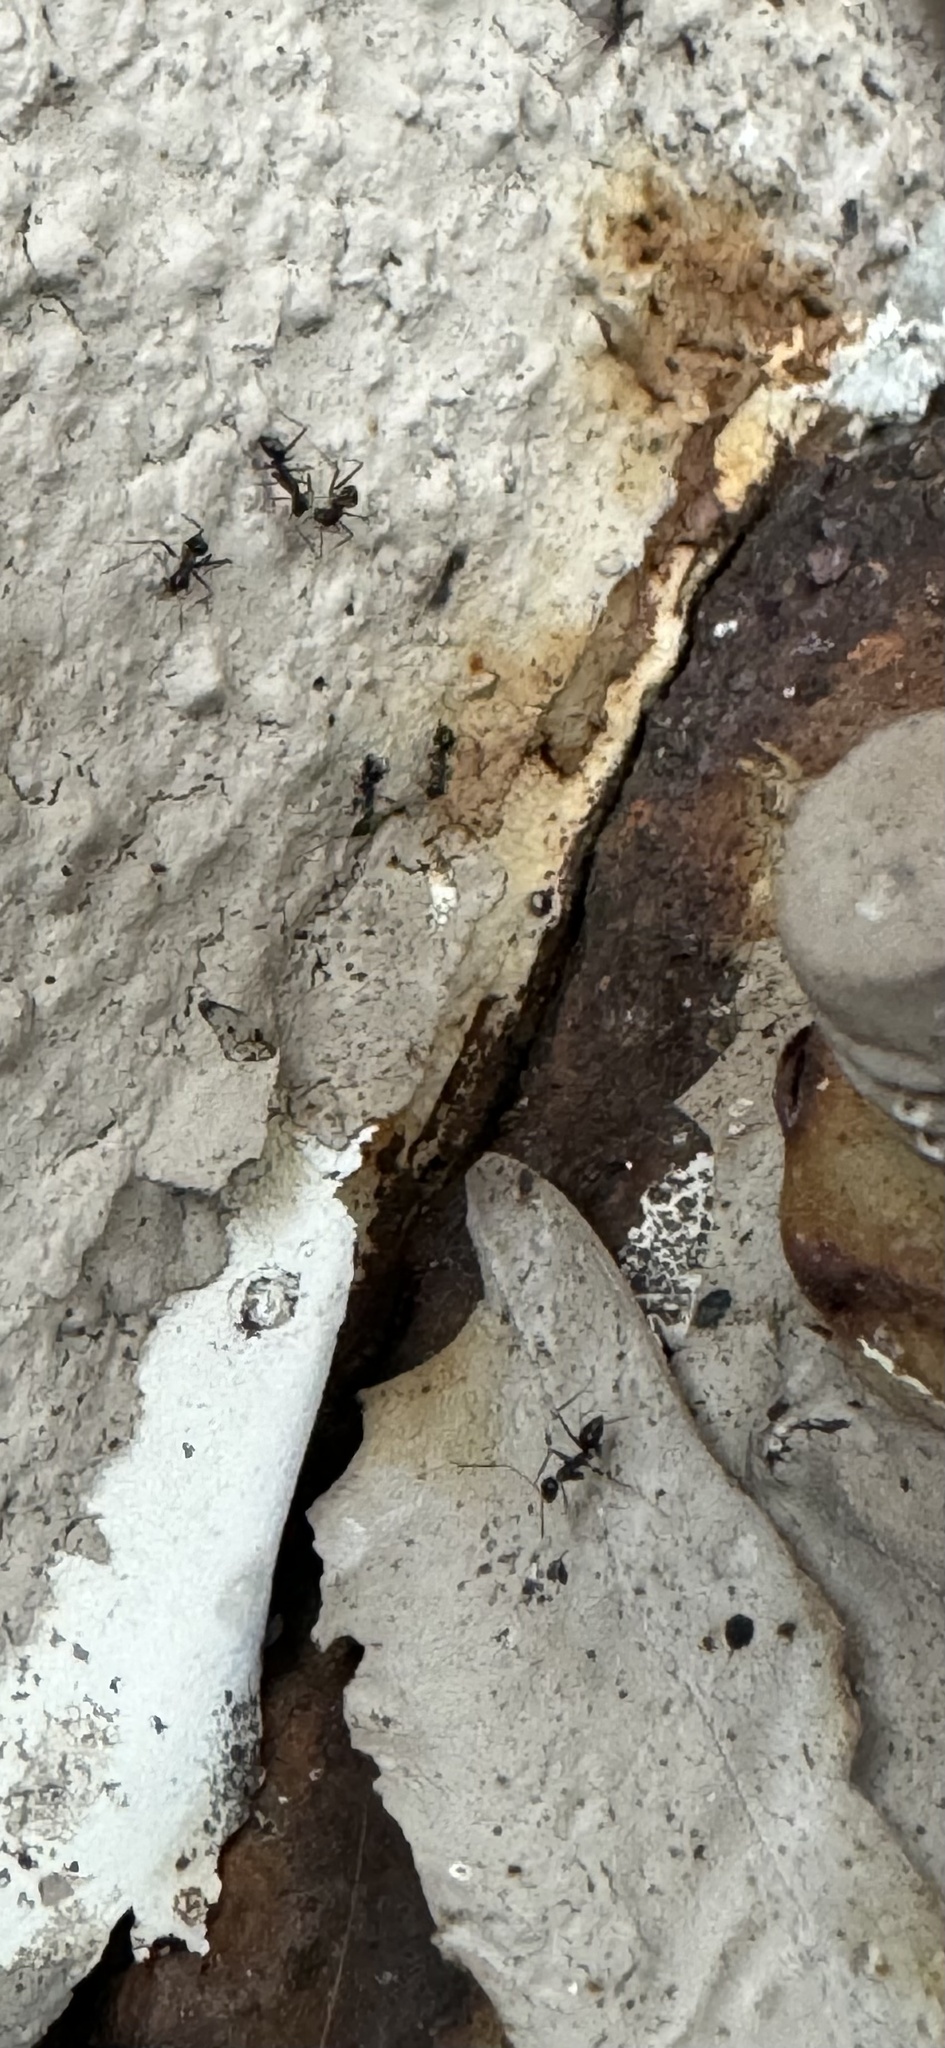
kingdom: Animalia
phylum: Arthropoda
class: Insecta
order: Hymenoptera
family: Formicidae
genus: Paratrechina
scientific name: Paratrechina longicornis
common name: Longhorned crazy ant
